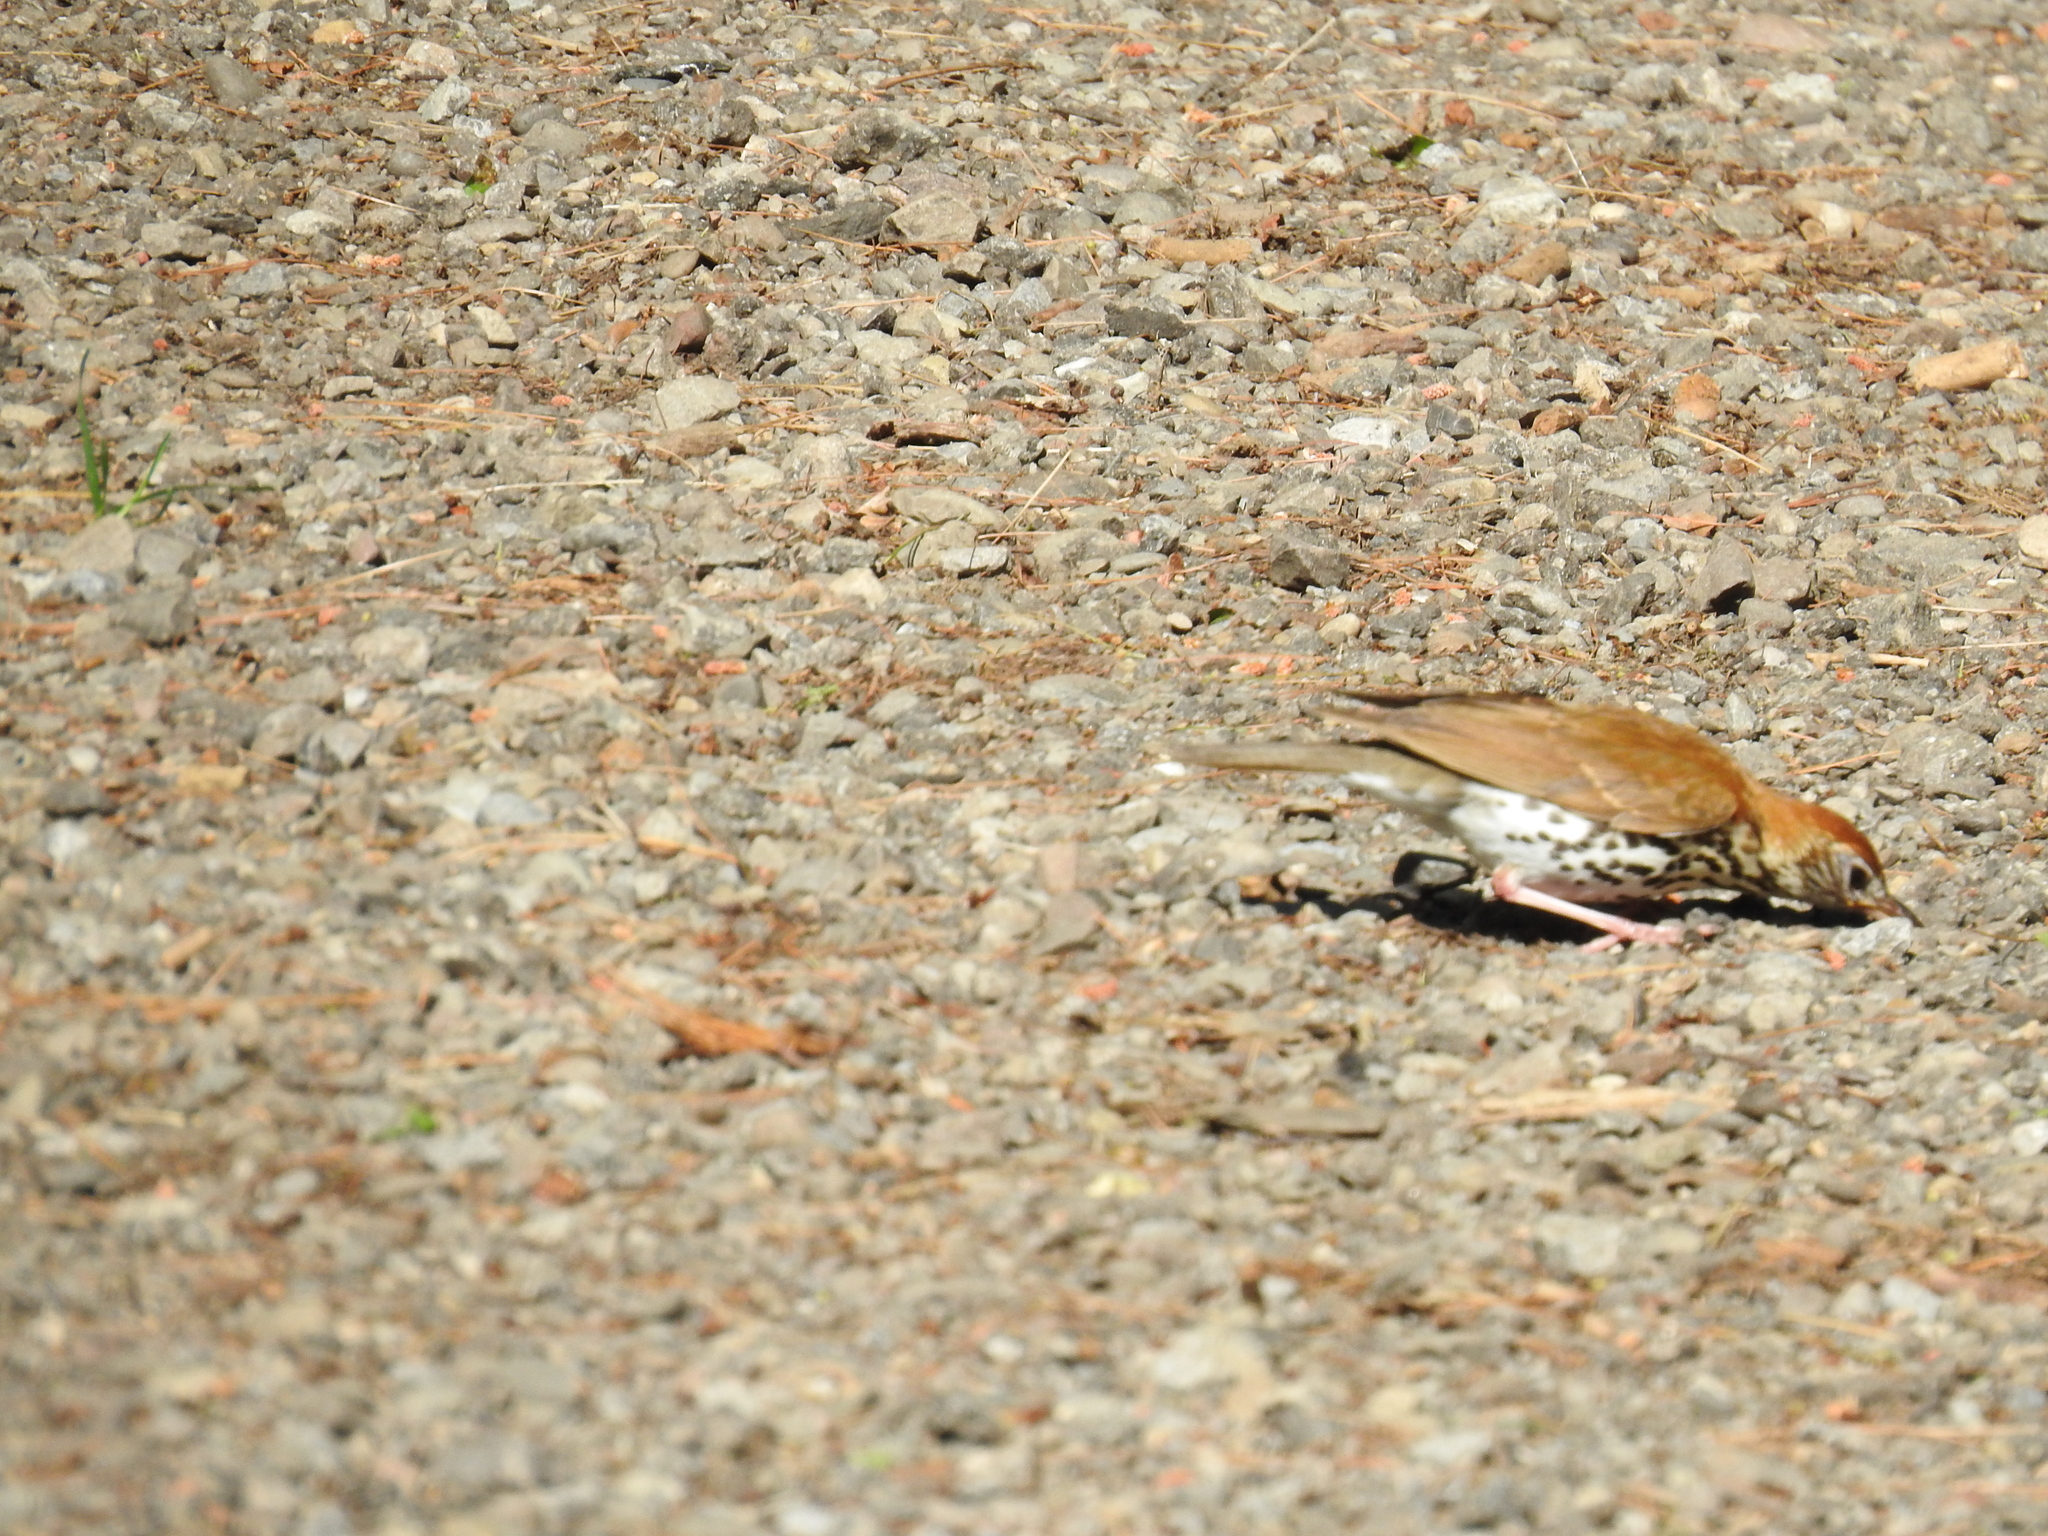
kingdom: Animalia
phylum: Chordata
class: Aves
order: Passeriformes
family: Turdidae
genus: Hylocichla
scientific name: Hylocichla mustelina
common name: Wood thrush
